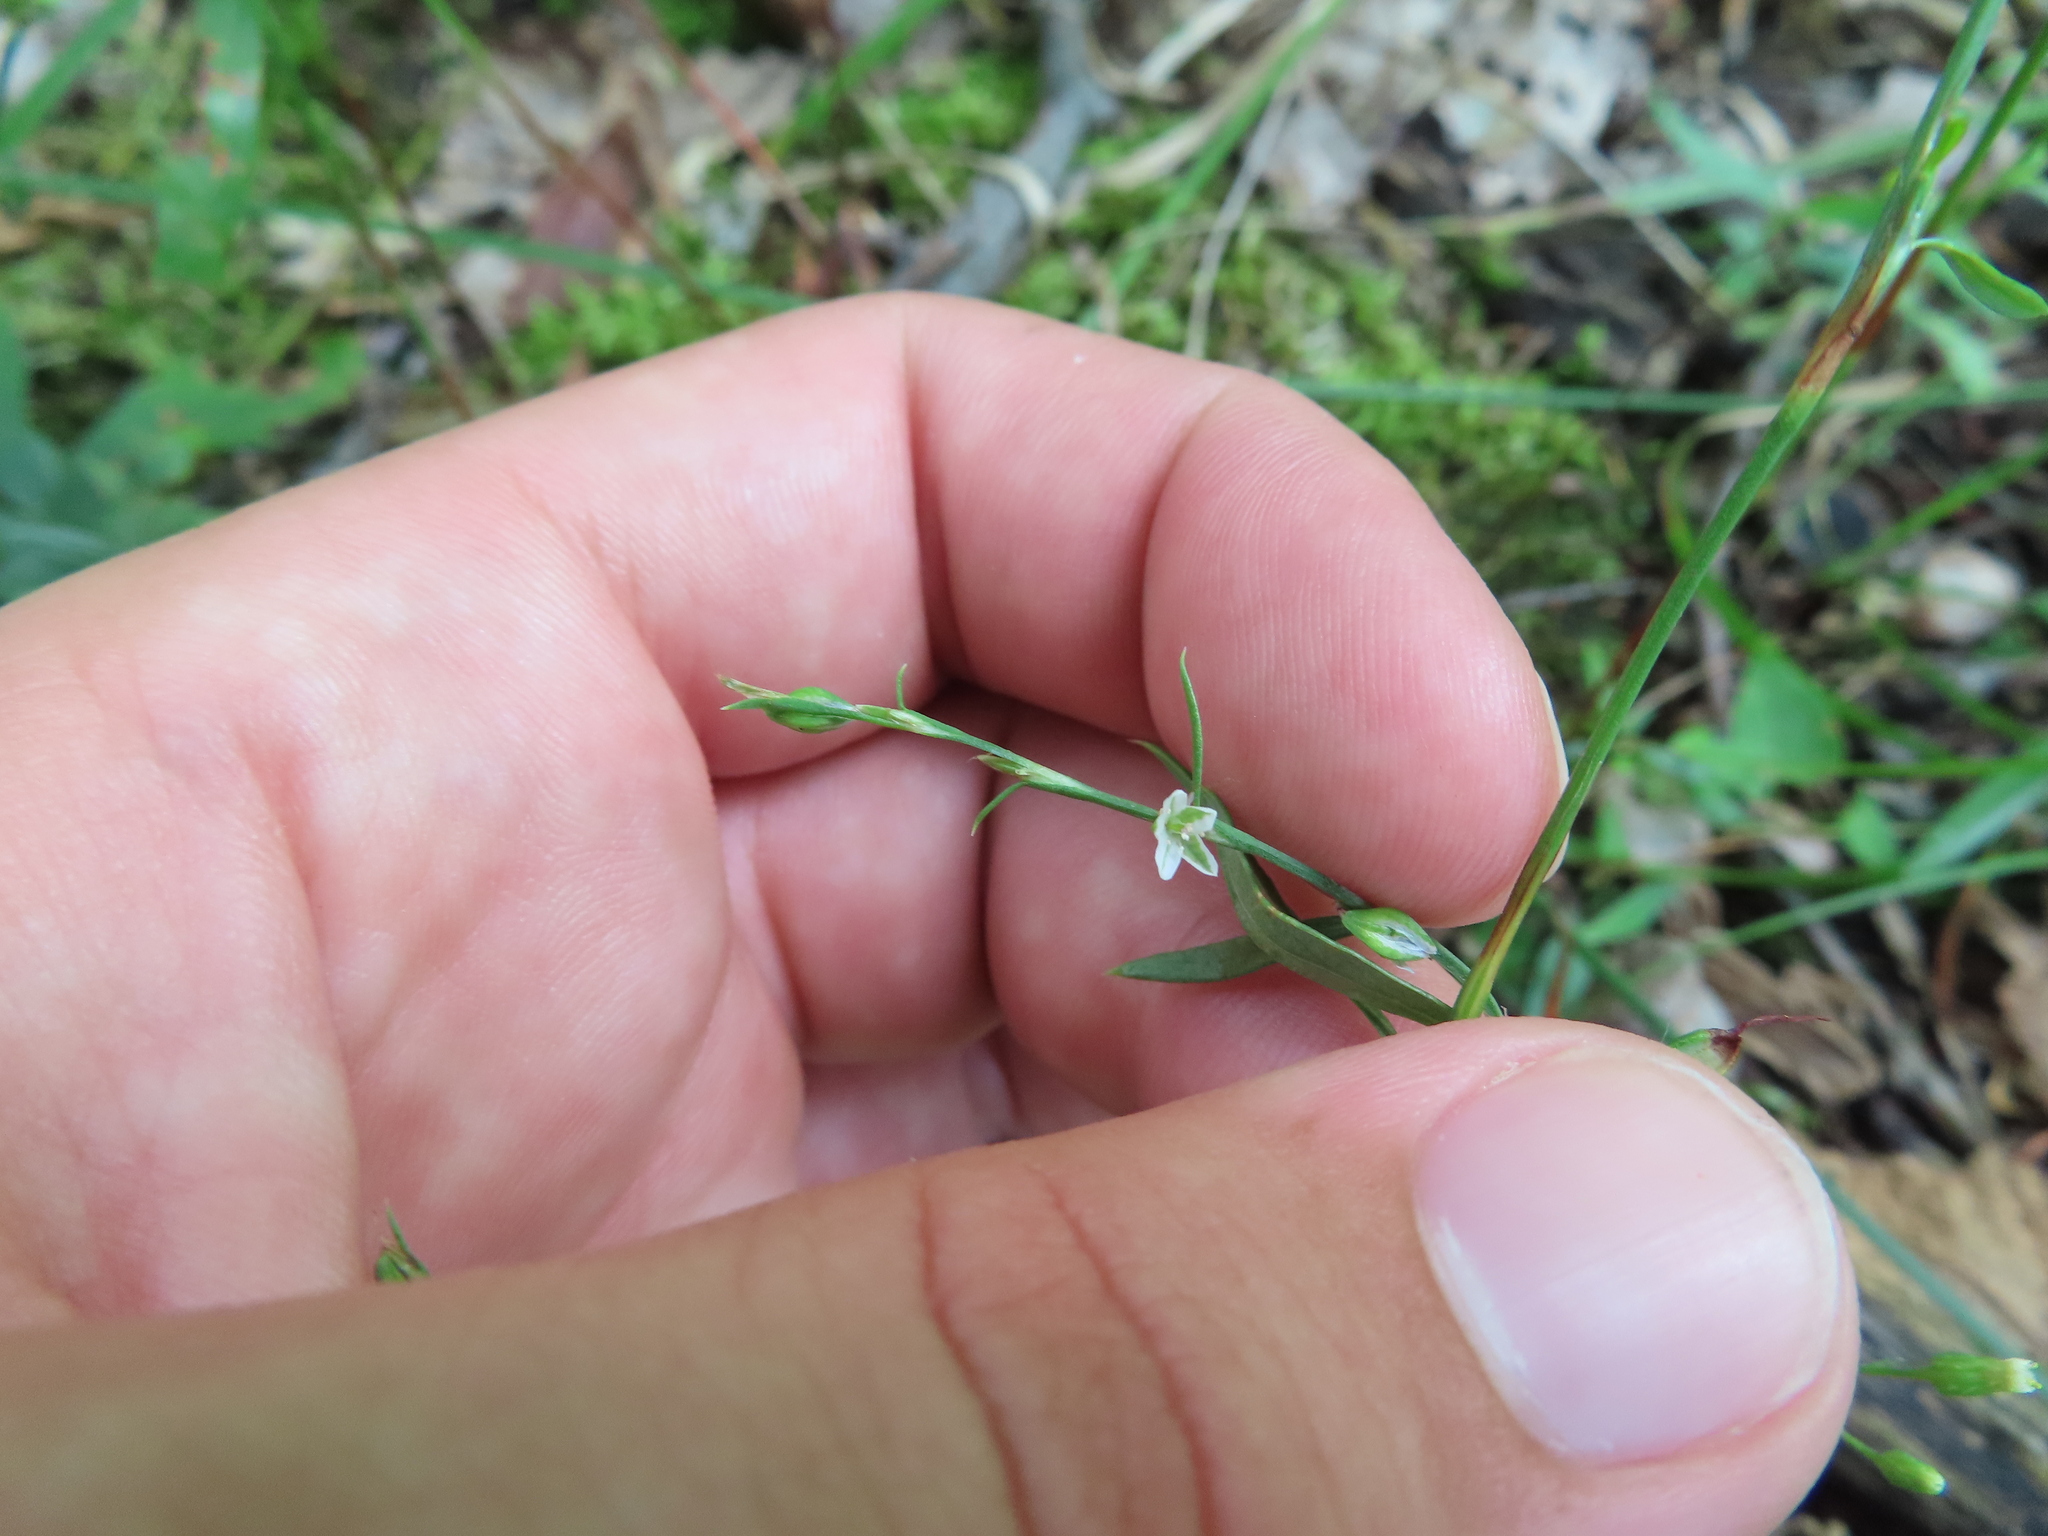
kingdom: Plantae
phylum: Tracheophyta
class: Magnoliopsida
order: Caryophyllales
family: Polygonaceae
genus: Polygonum
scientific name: Polygonum douglasii
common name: Douglas' knotweed
